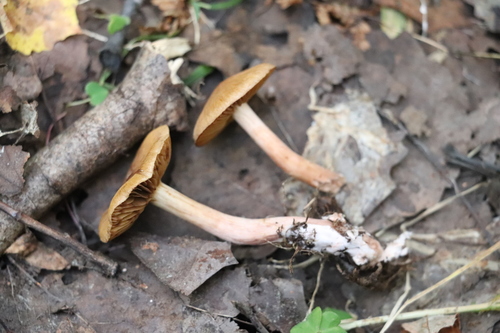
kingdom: Fungi
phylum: Basidiomycota
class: Agaricomycetes
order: Agaricales
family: Cortinariaceae
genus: Cortinarius
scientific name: Cortinarius
